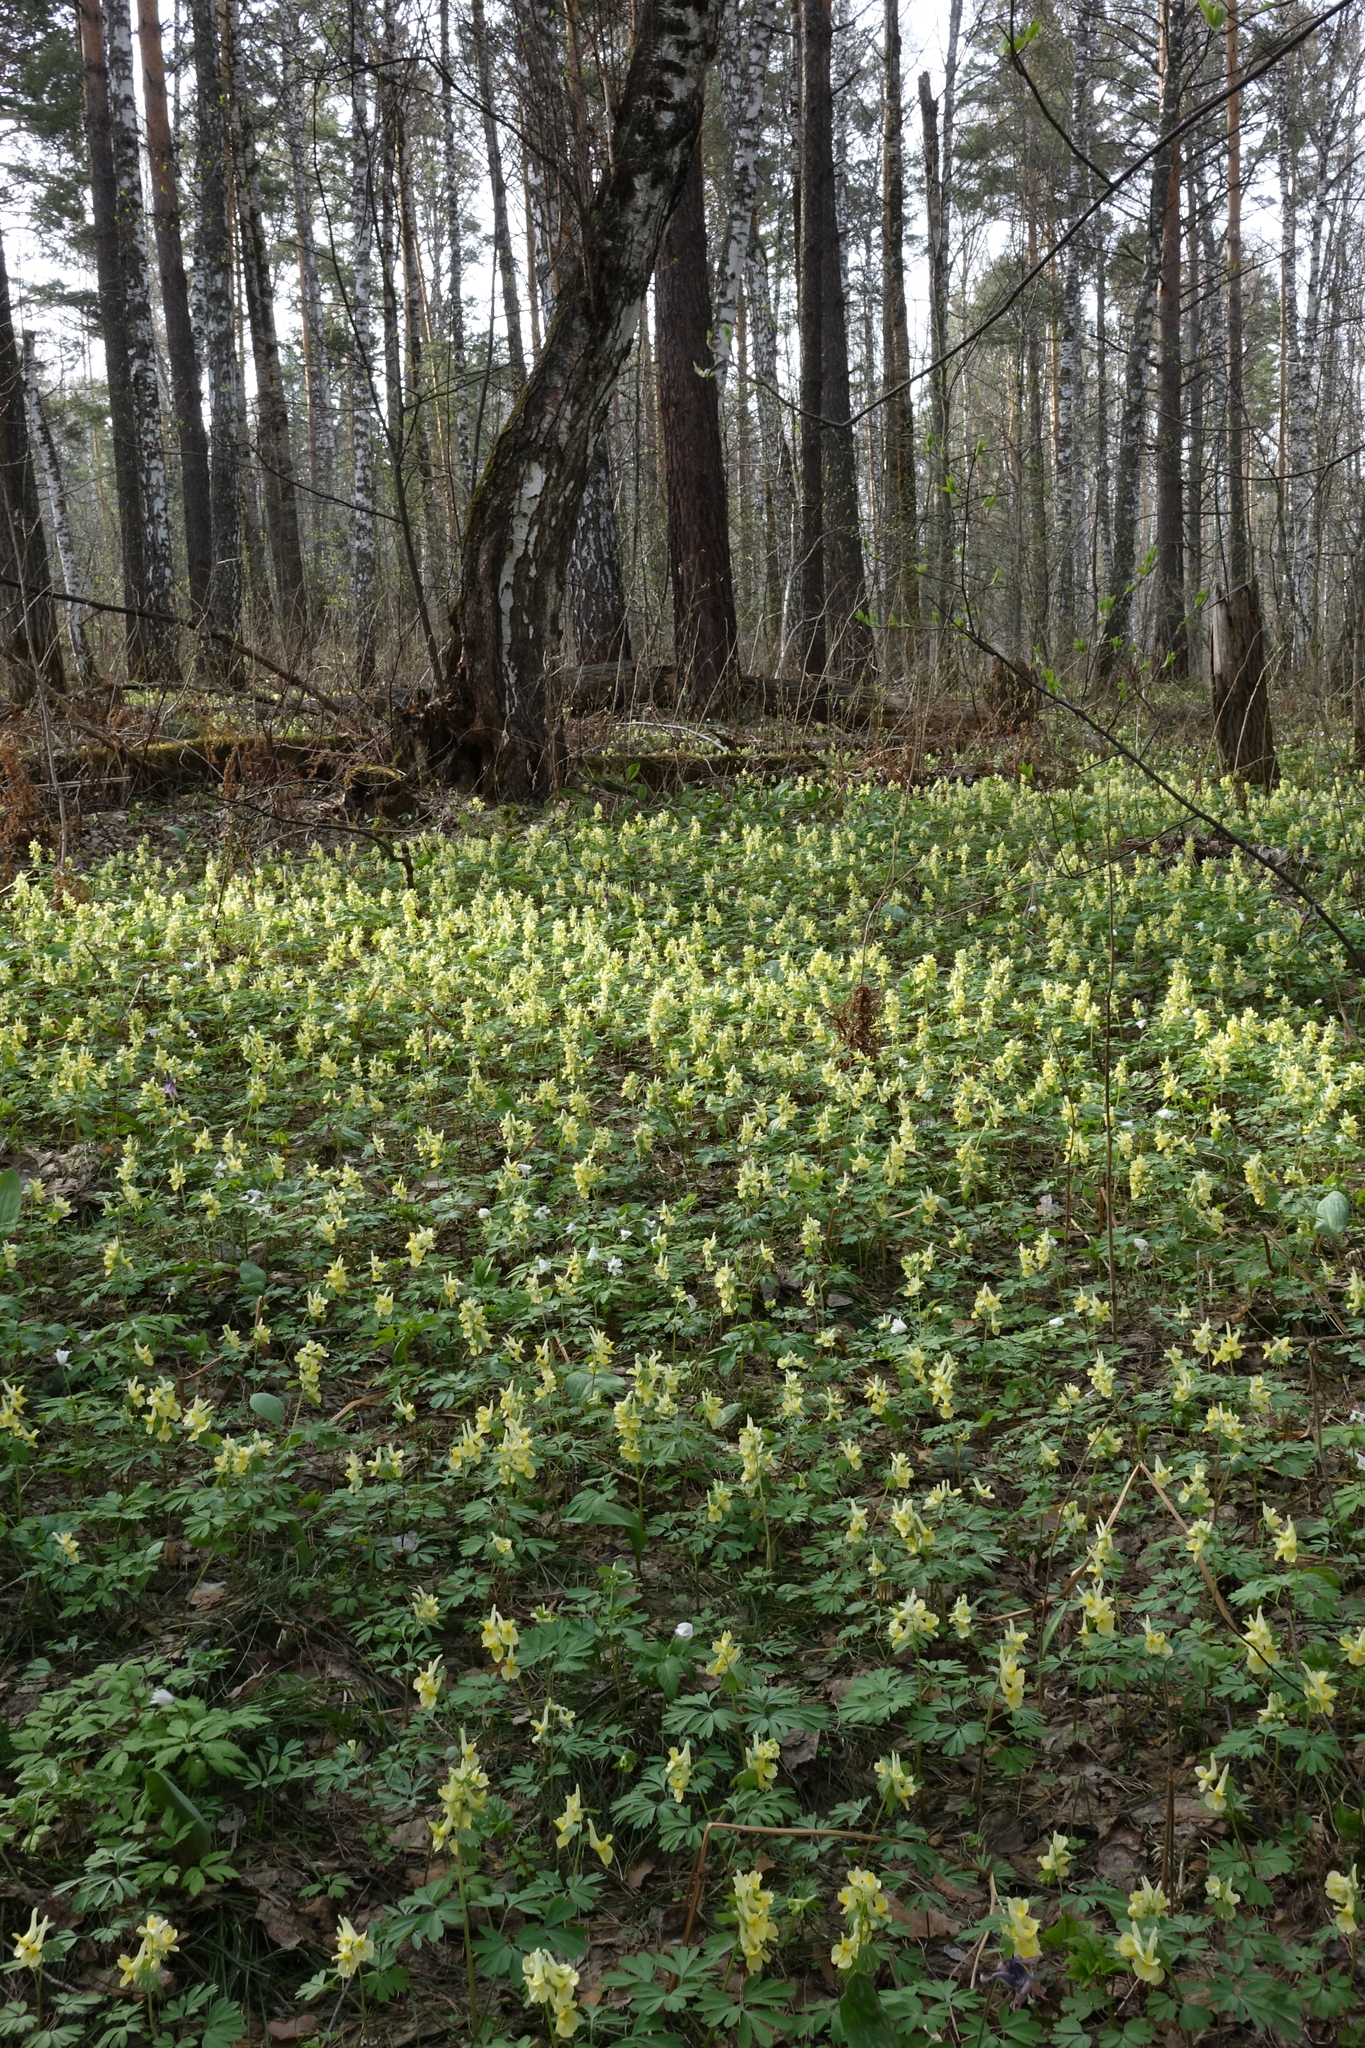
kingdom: Plantae
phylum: Tracheophyta
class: Magnoliopsida
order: Ranunculales
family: Papaveraceae
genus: Corydalis
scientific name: Corydalis bracteata
